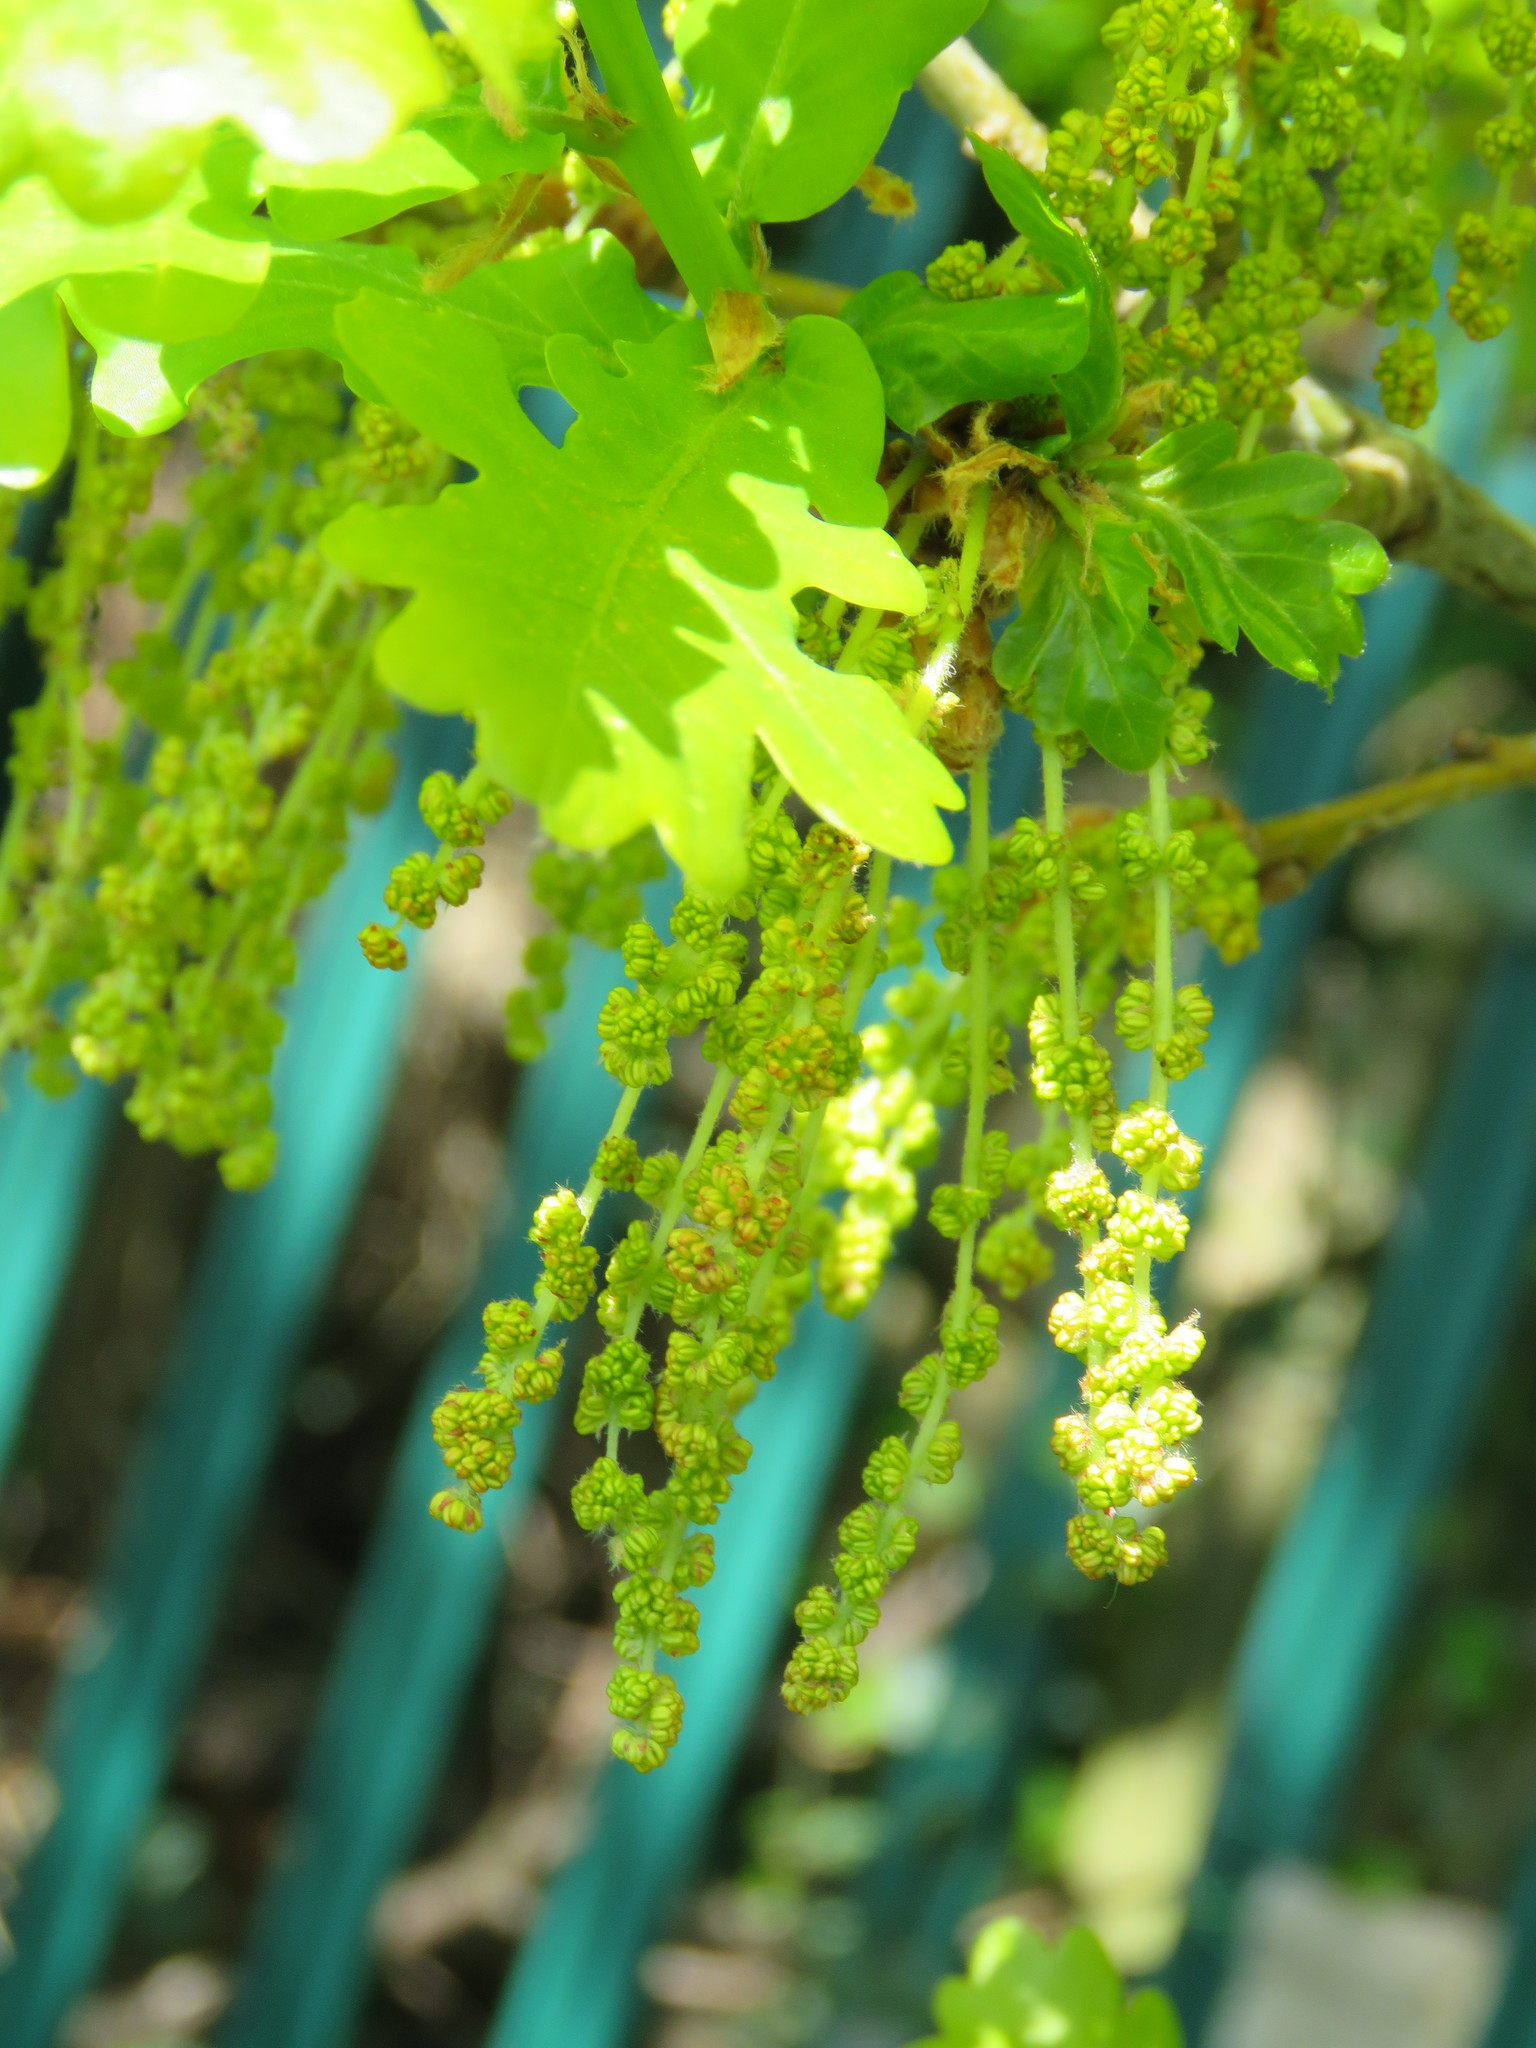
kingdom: Plantae
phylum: Tracheophyta
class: Magnoliopsida
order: Fagales
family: Fagaceae
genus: Quercus
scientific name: Quercus robur
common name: Pedunculate oak
